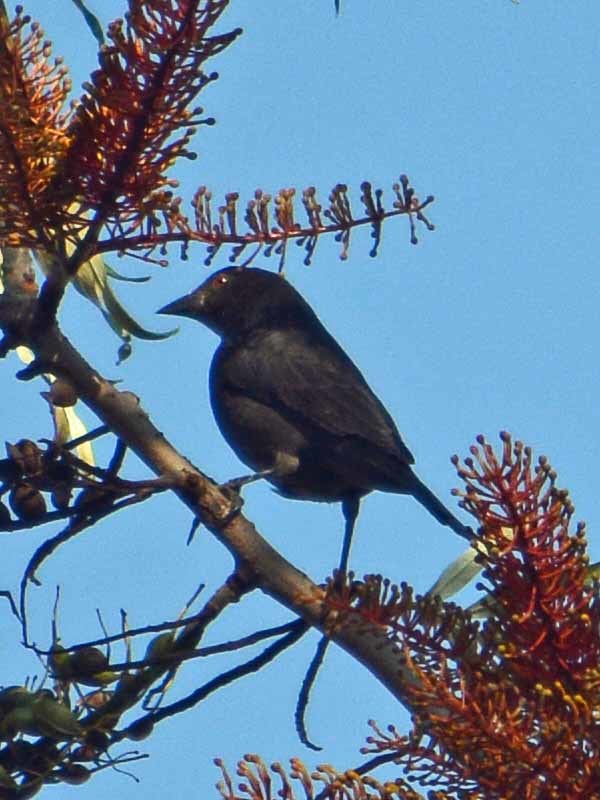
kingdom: Animalia
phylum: Chordata
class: Aves
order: Passeriformes
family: Icteridae
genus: Molothrus
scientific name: Molothrus aeneus
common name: Bronzed cowbird
